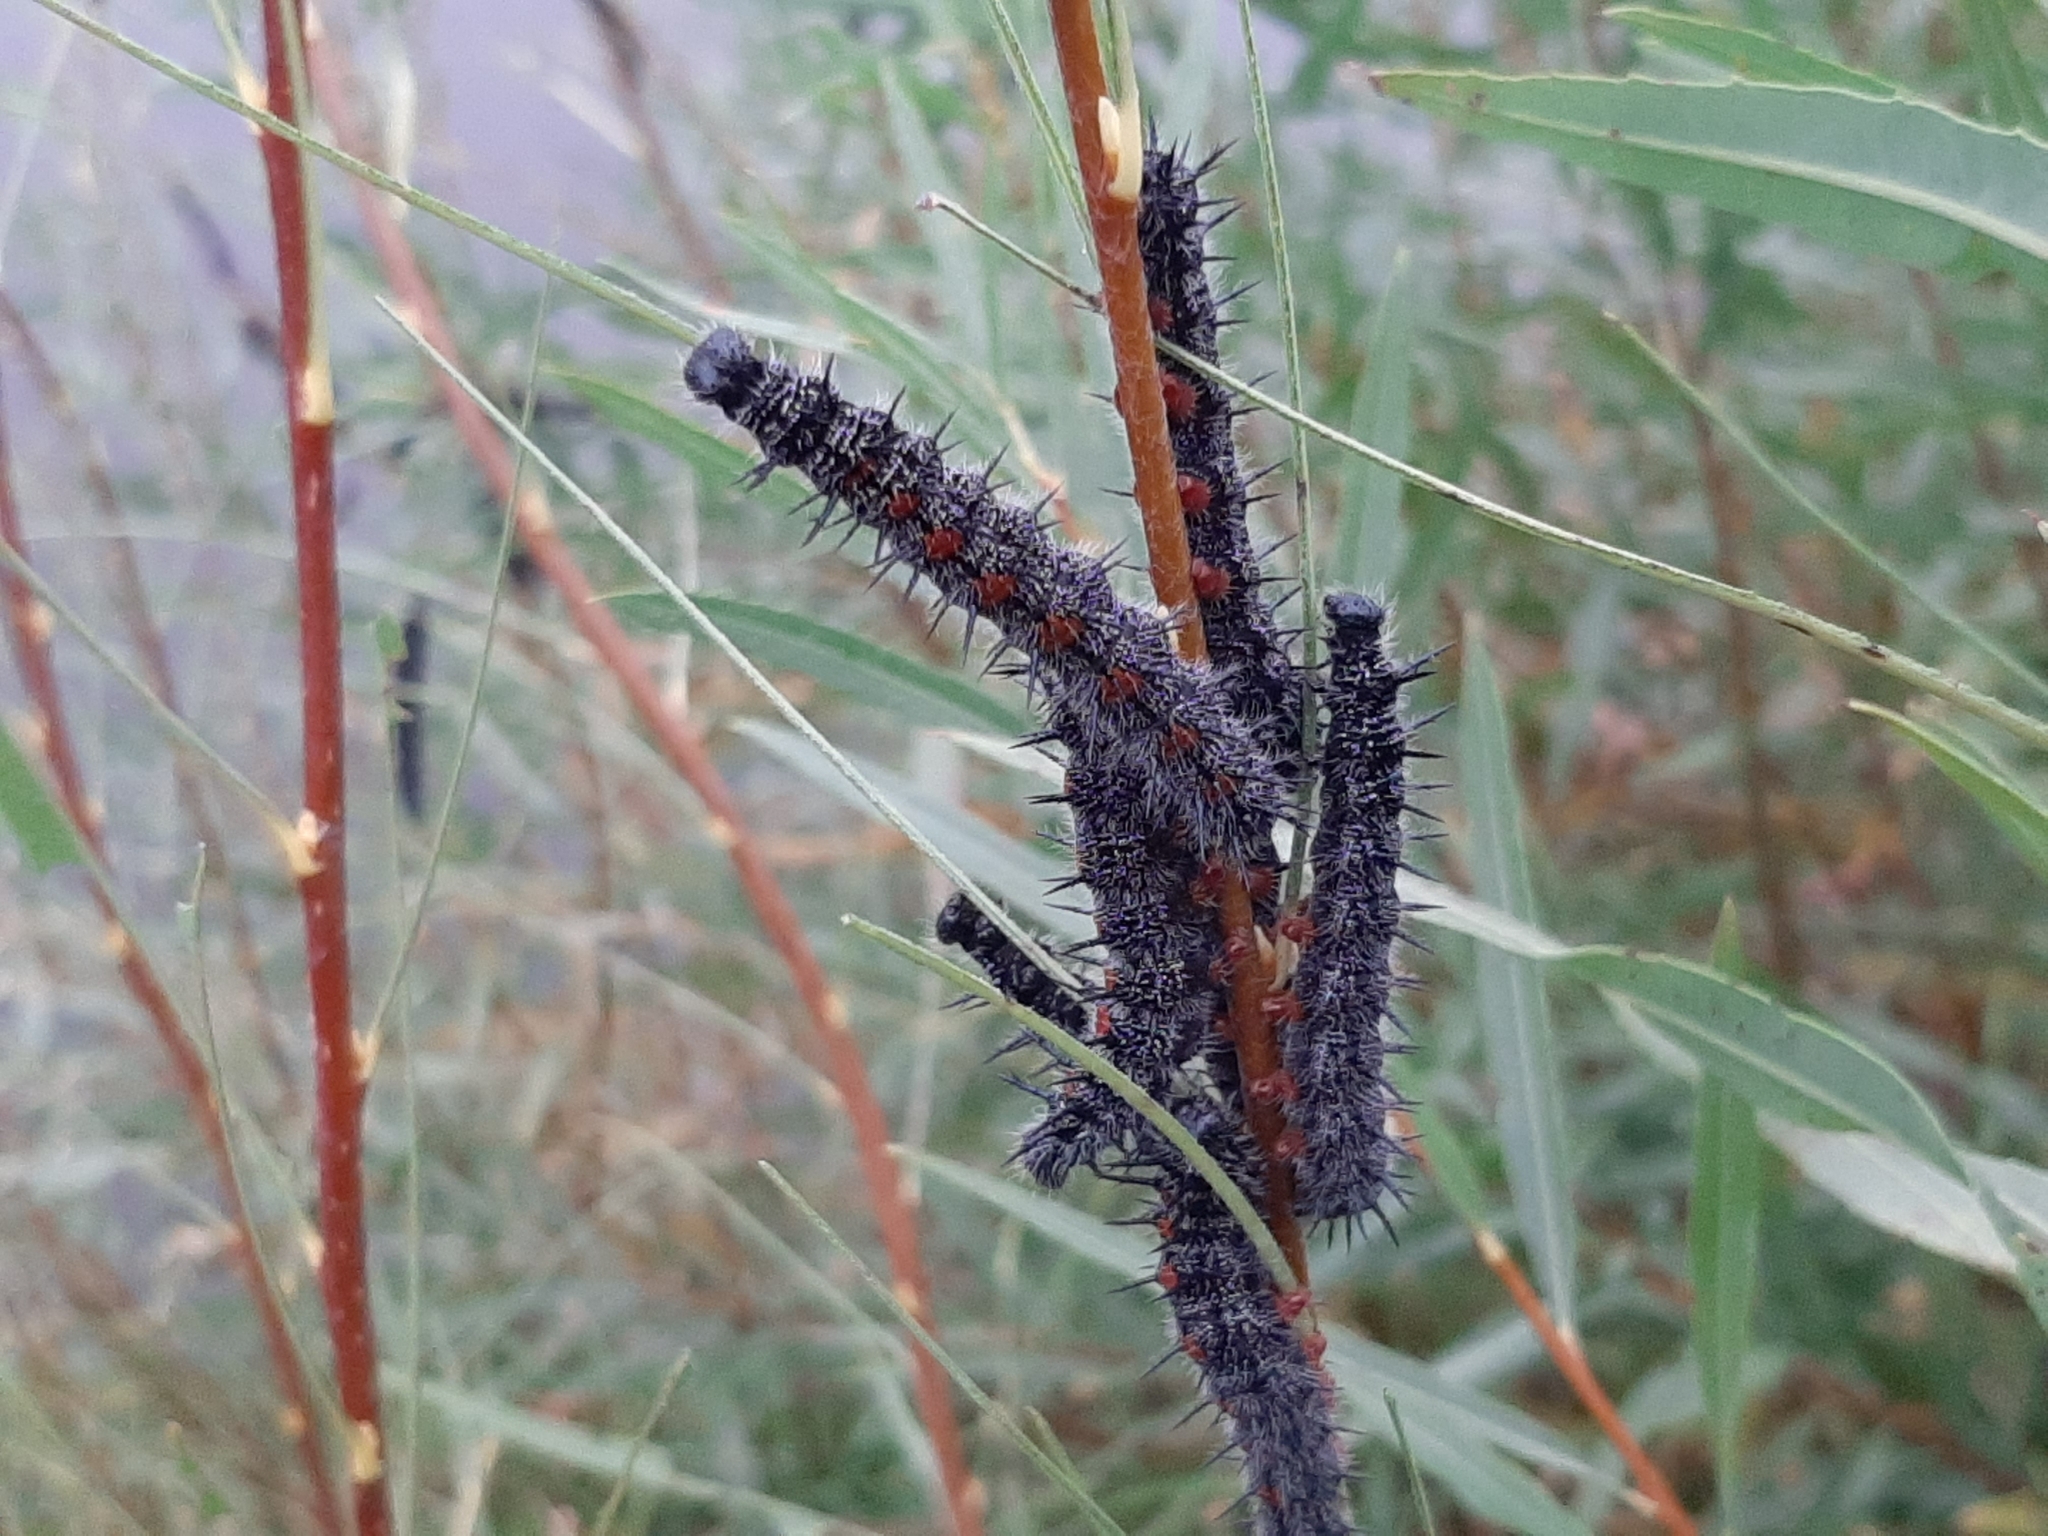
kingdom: Animalia
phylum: Arthropoda
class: Insecta
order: Lepidoptera
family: Nymphalidae
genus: Nymphalis
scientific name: Nymphalis antiopa
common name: Camberwell beauty
